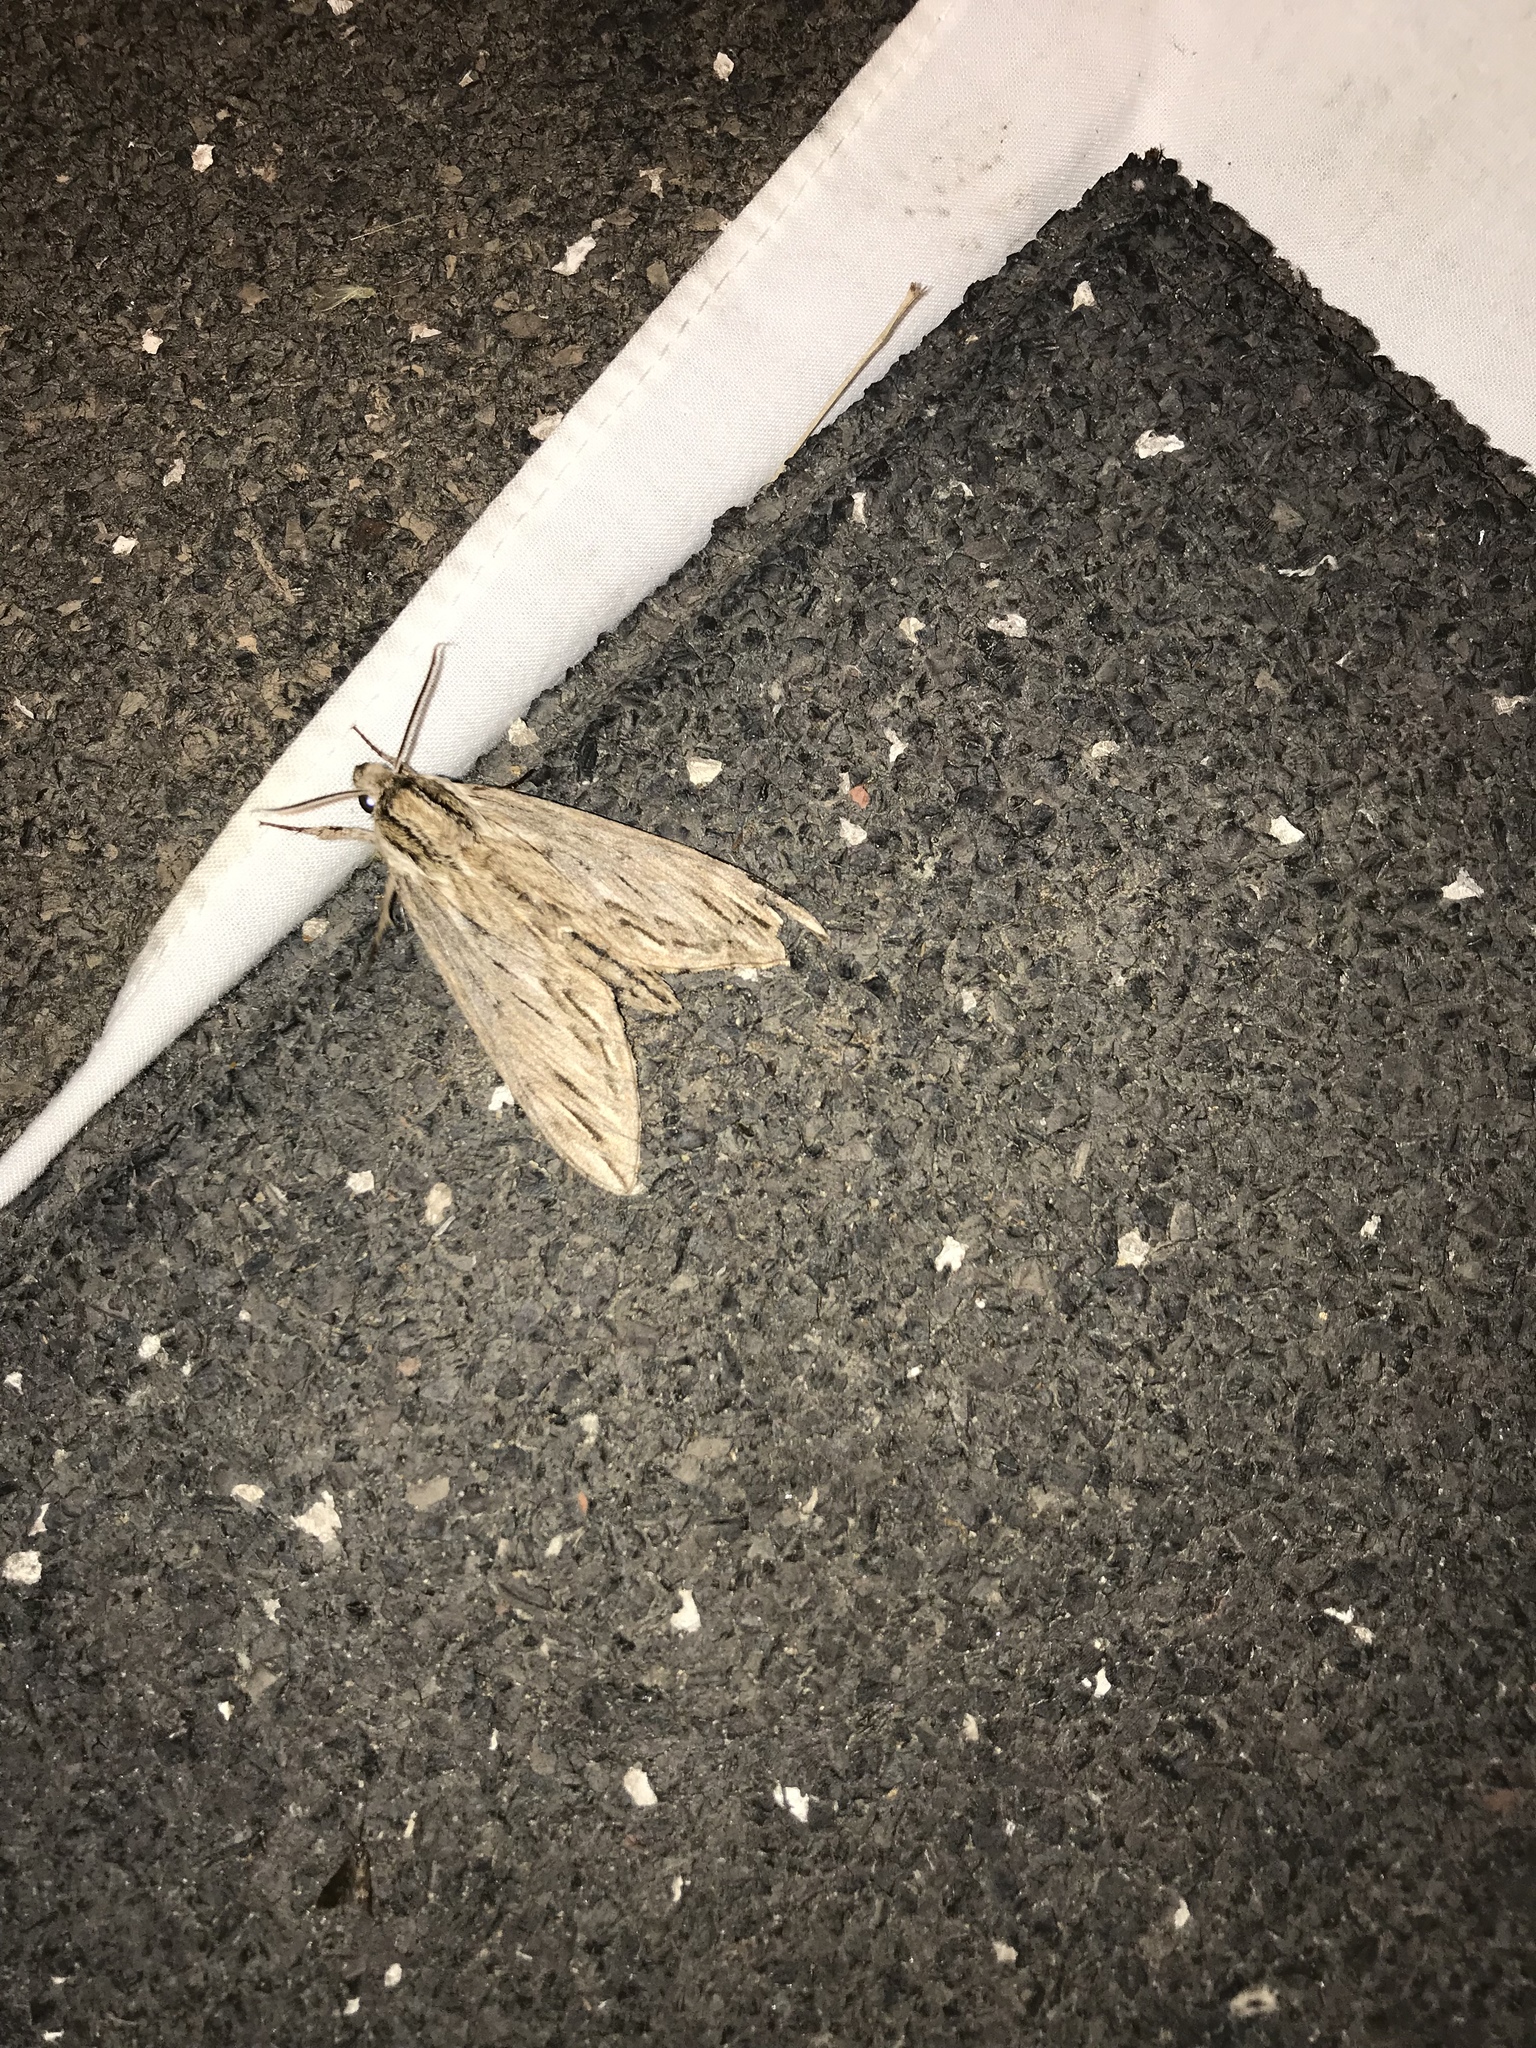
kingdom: Animalia
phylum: Arthropoda
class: Insecta
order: Lepidoptera
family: Sphingidae
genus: Sphinx
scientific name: Sphinx canadensis
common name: Canadian sphinx
